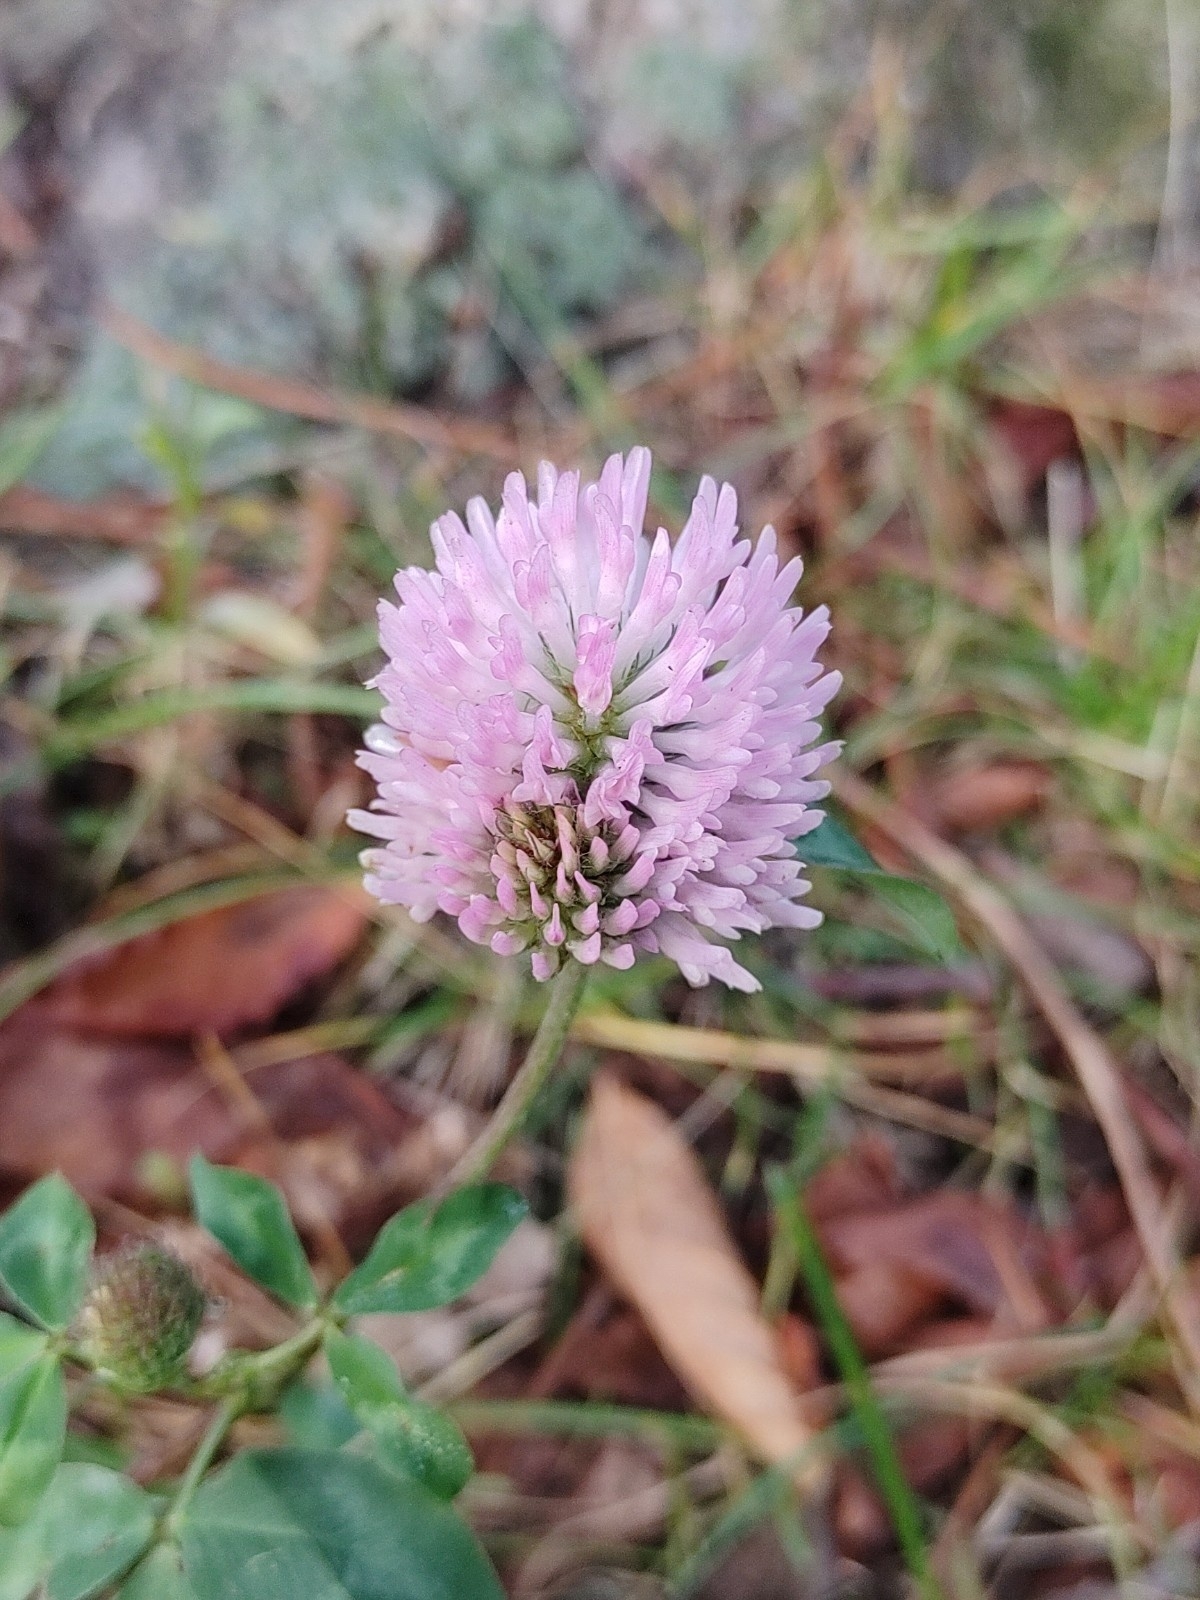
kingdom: Plantae
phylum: Tracheophyta
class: Magnoliopsida
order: Fabales
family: Fabaceae
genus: Trifolium
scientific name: Trifolium pratense
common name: Red clover
